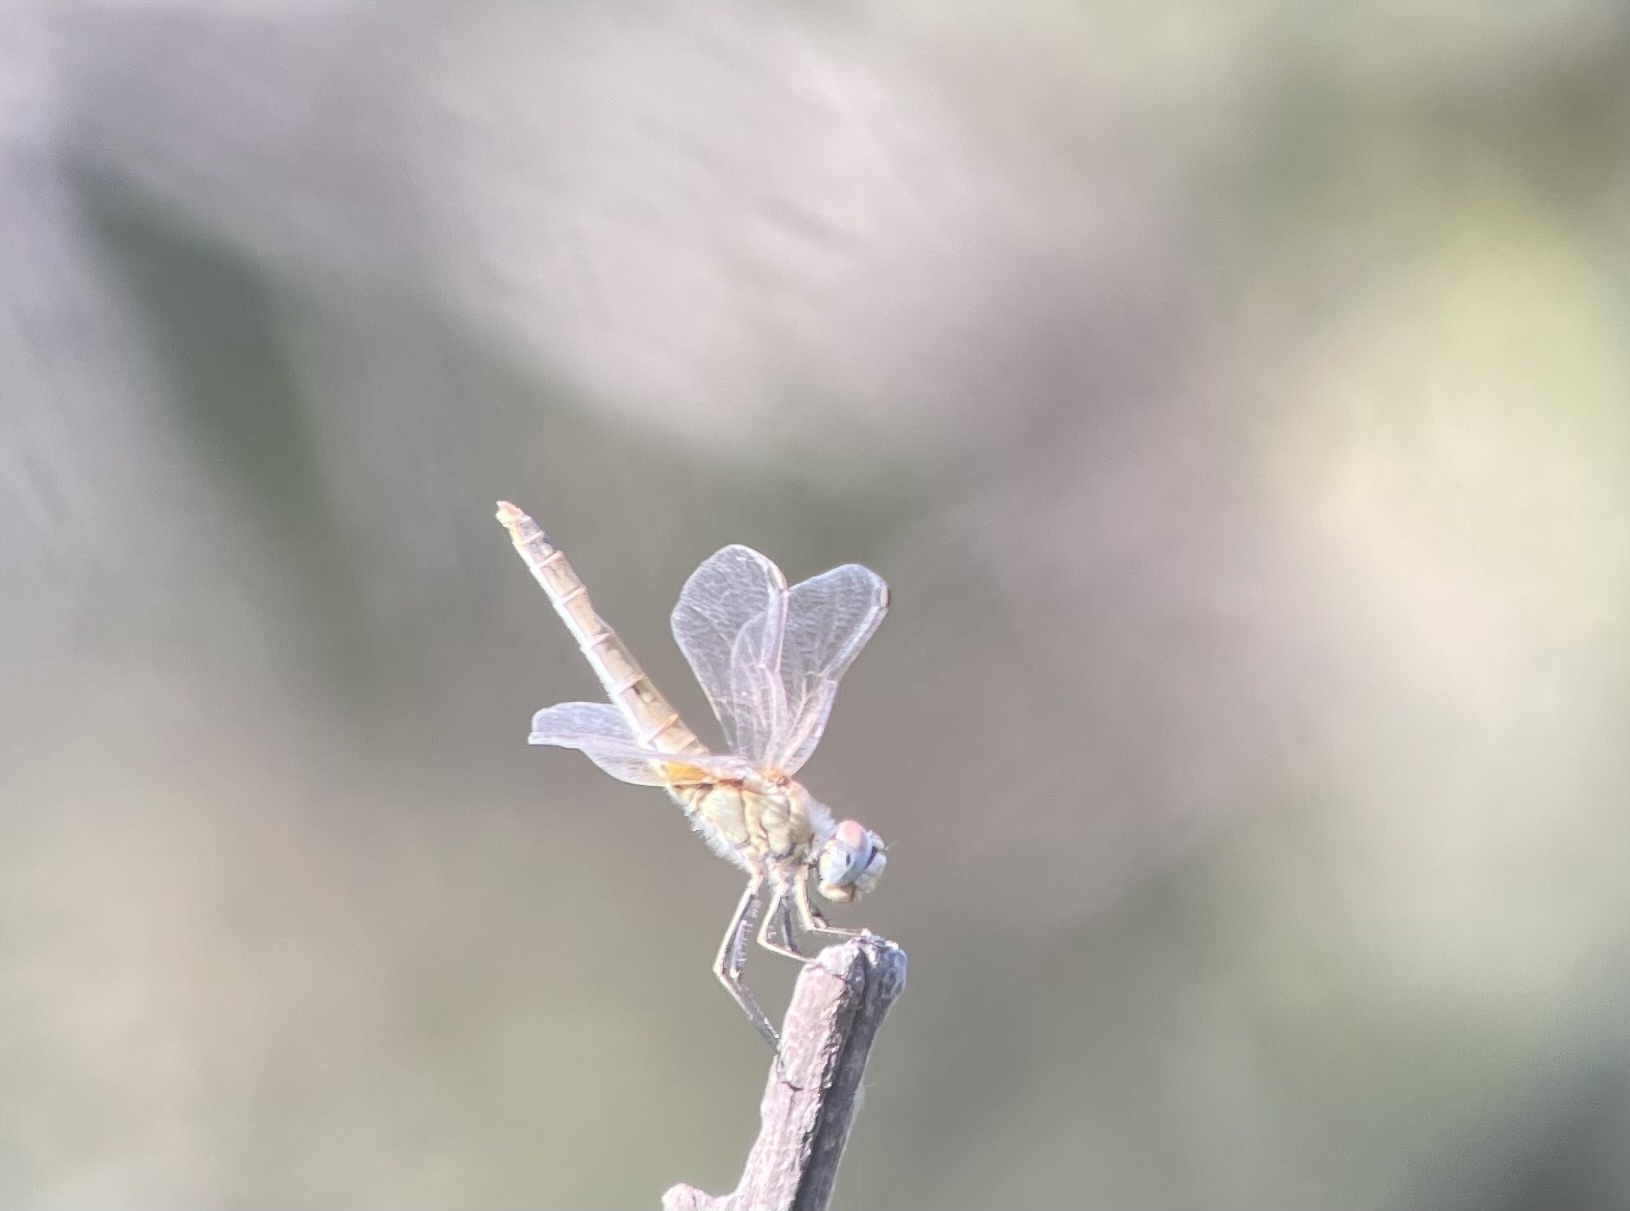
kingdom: Animalia
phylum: Arthropoda
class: Insecta
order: Odonata
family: Libellulidae
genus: Sympetrum
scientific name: Sympetrum fonscolombii
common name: Red-veined darter
